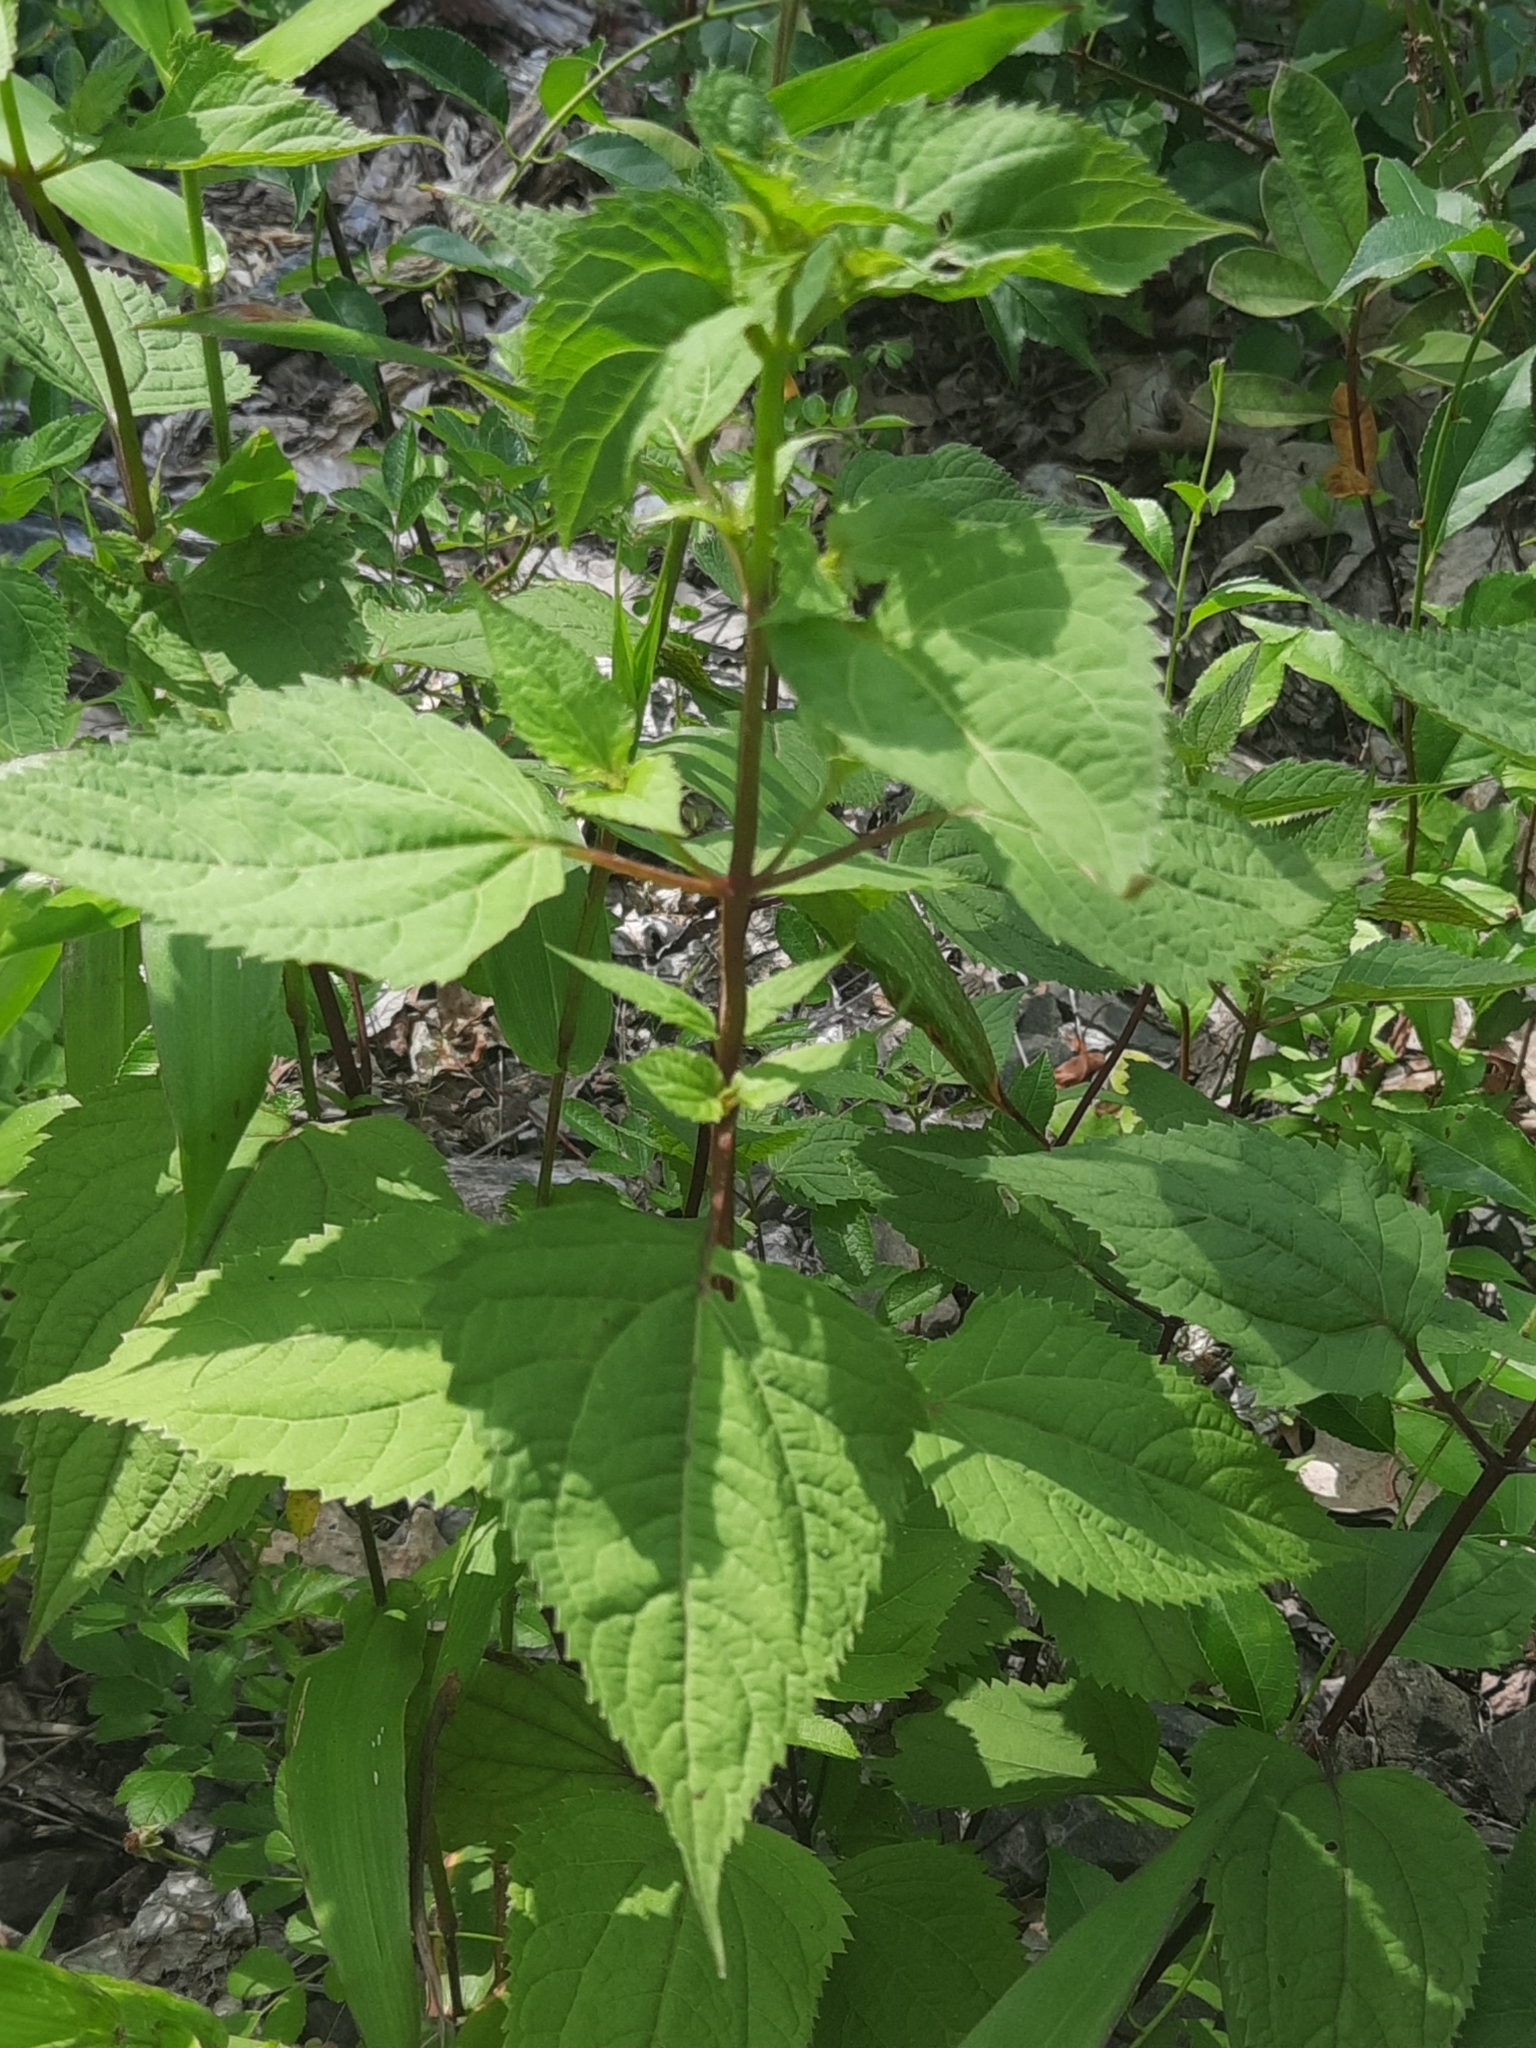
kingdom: Plantae
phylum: Tracheophyta
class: Magnoliopsida
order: Asterales
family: Asteraceae
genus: Ageratina
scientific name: Ageratina altissima
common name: White snakeroot
